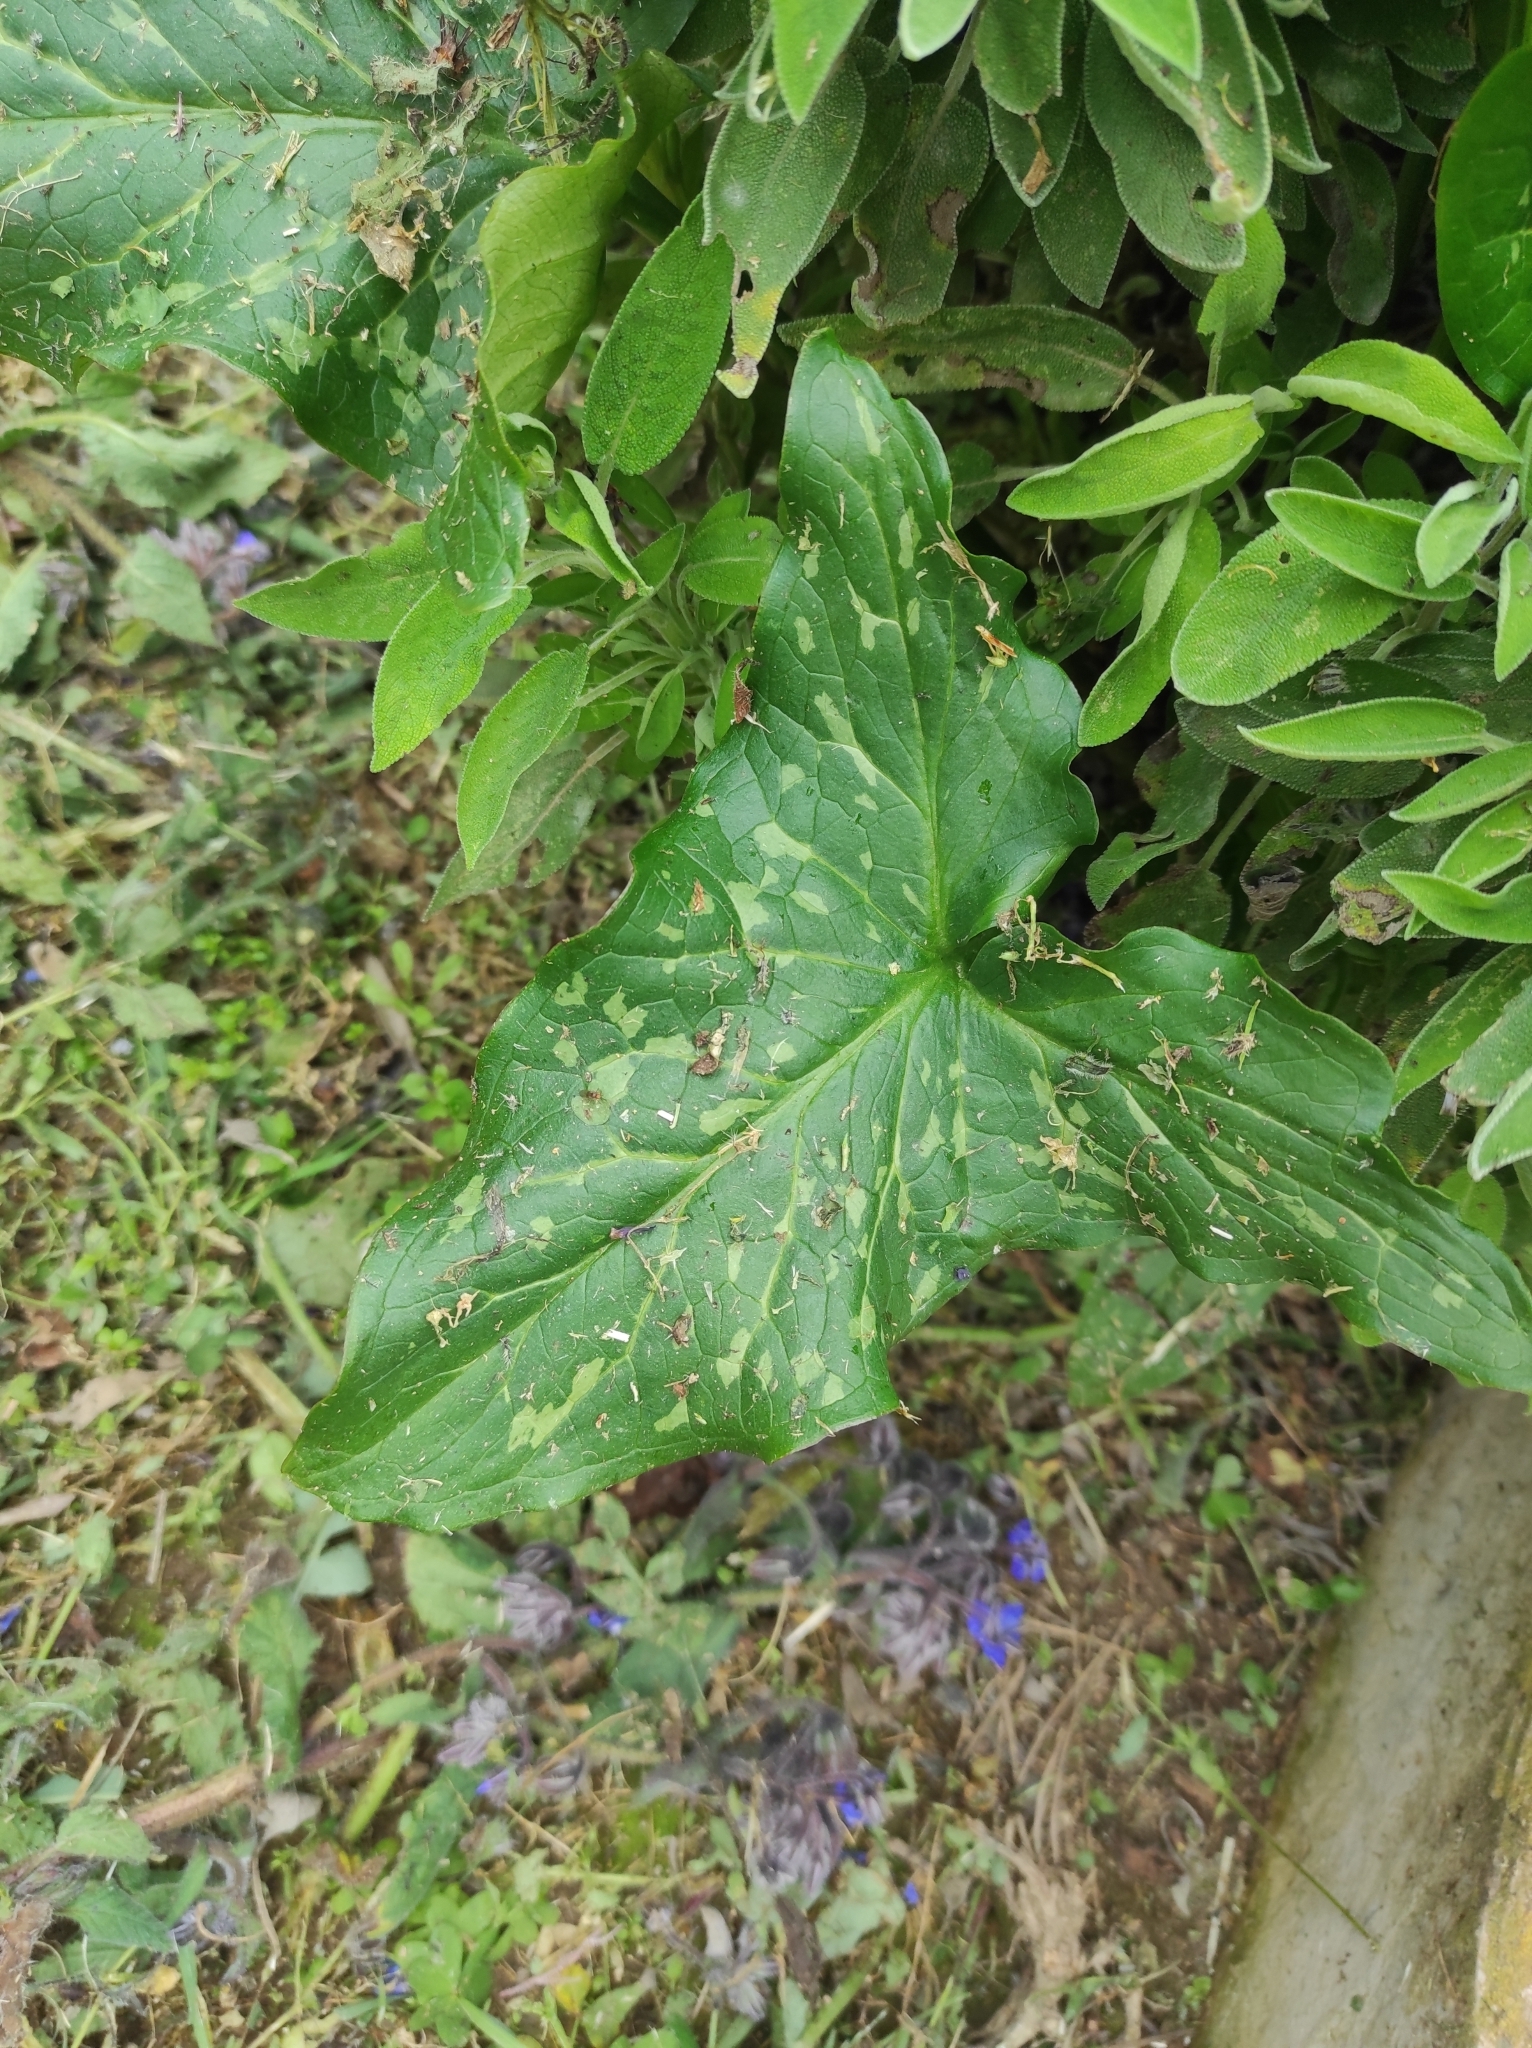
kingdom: Plantae
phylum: Tracheophyta
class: Liliopsida
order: Alismatales
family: Araceae
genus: Arum
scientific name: Arum italicum
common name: Italian lords-and-ladies
